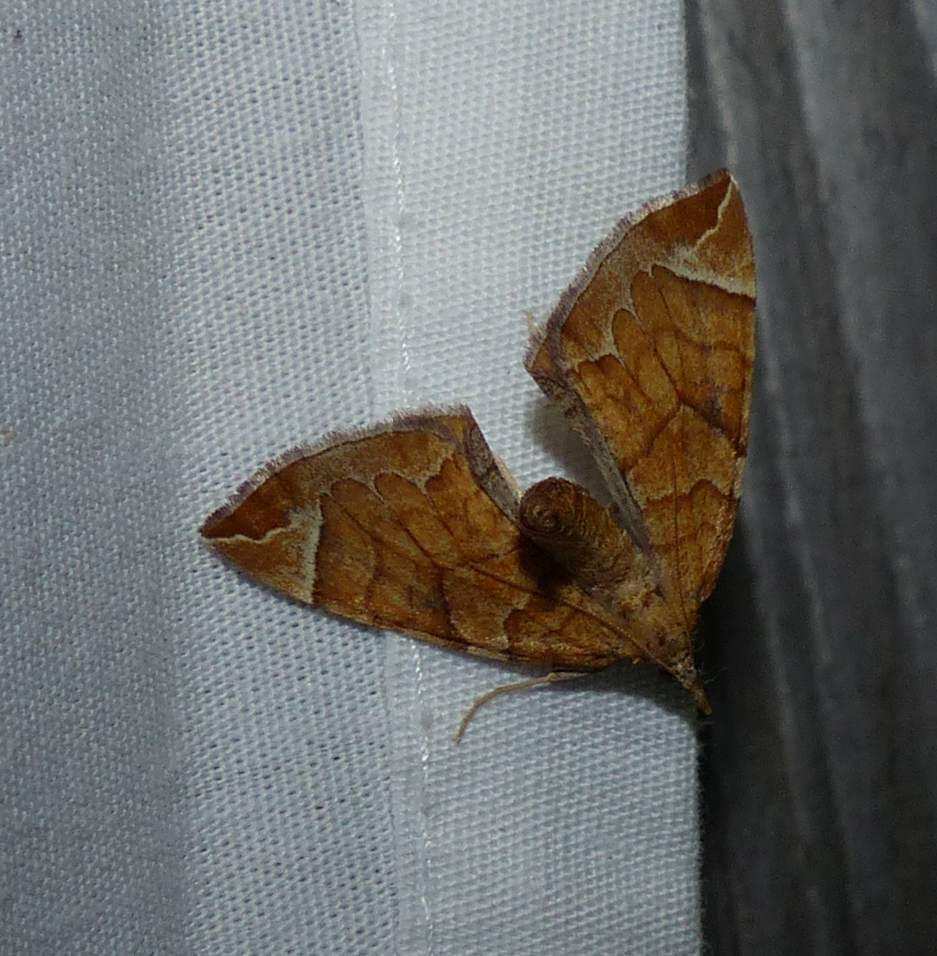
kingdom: Animalia
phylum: Arthropoda
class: Insecta
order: Lepidoptera
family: Geometridae
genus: Eulithis
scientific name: Eulithis testata
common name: Chevron
